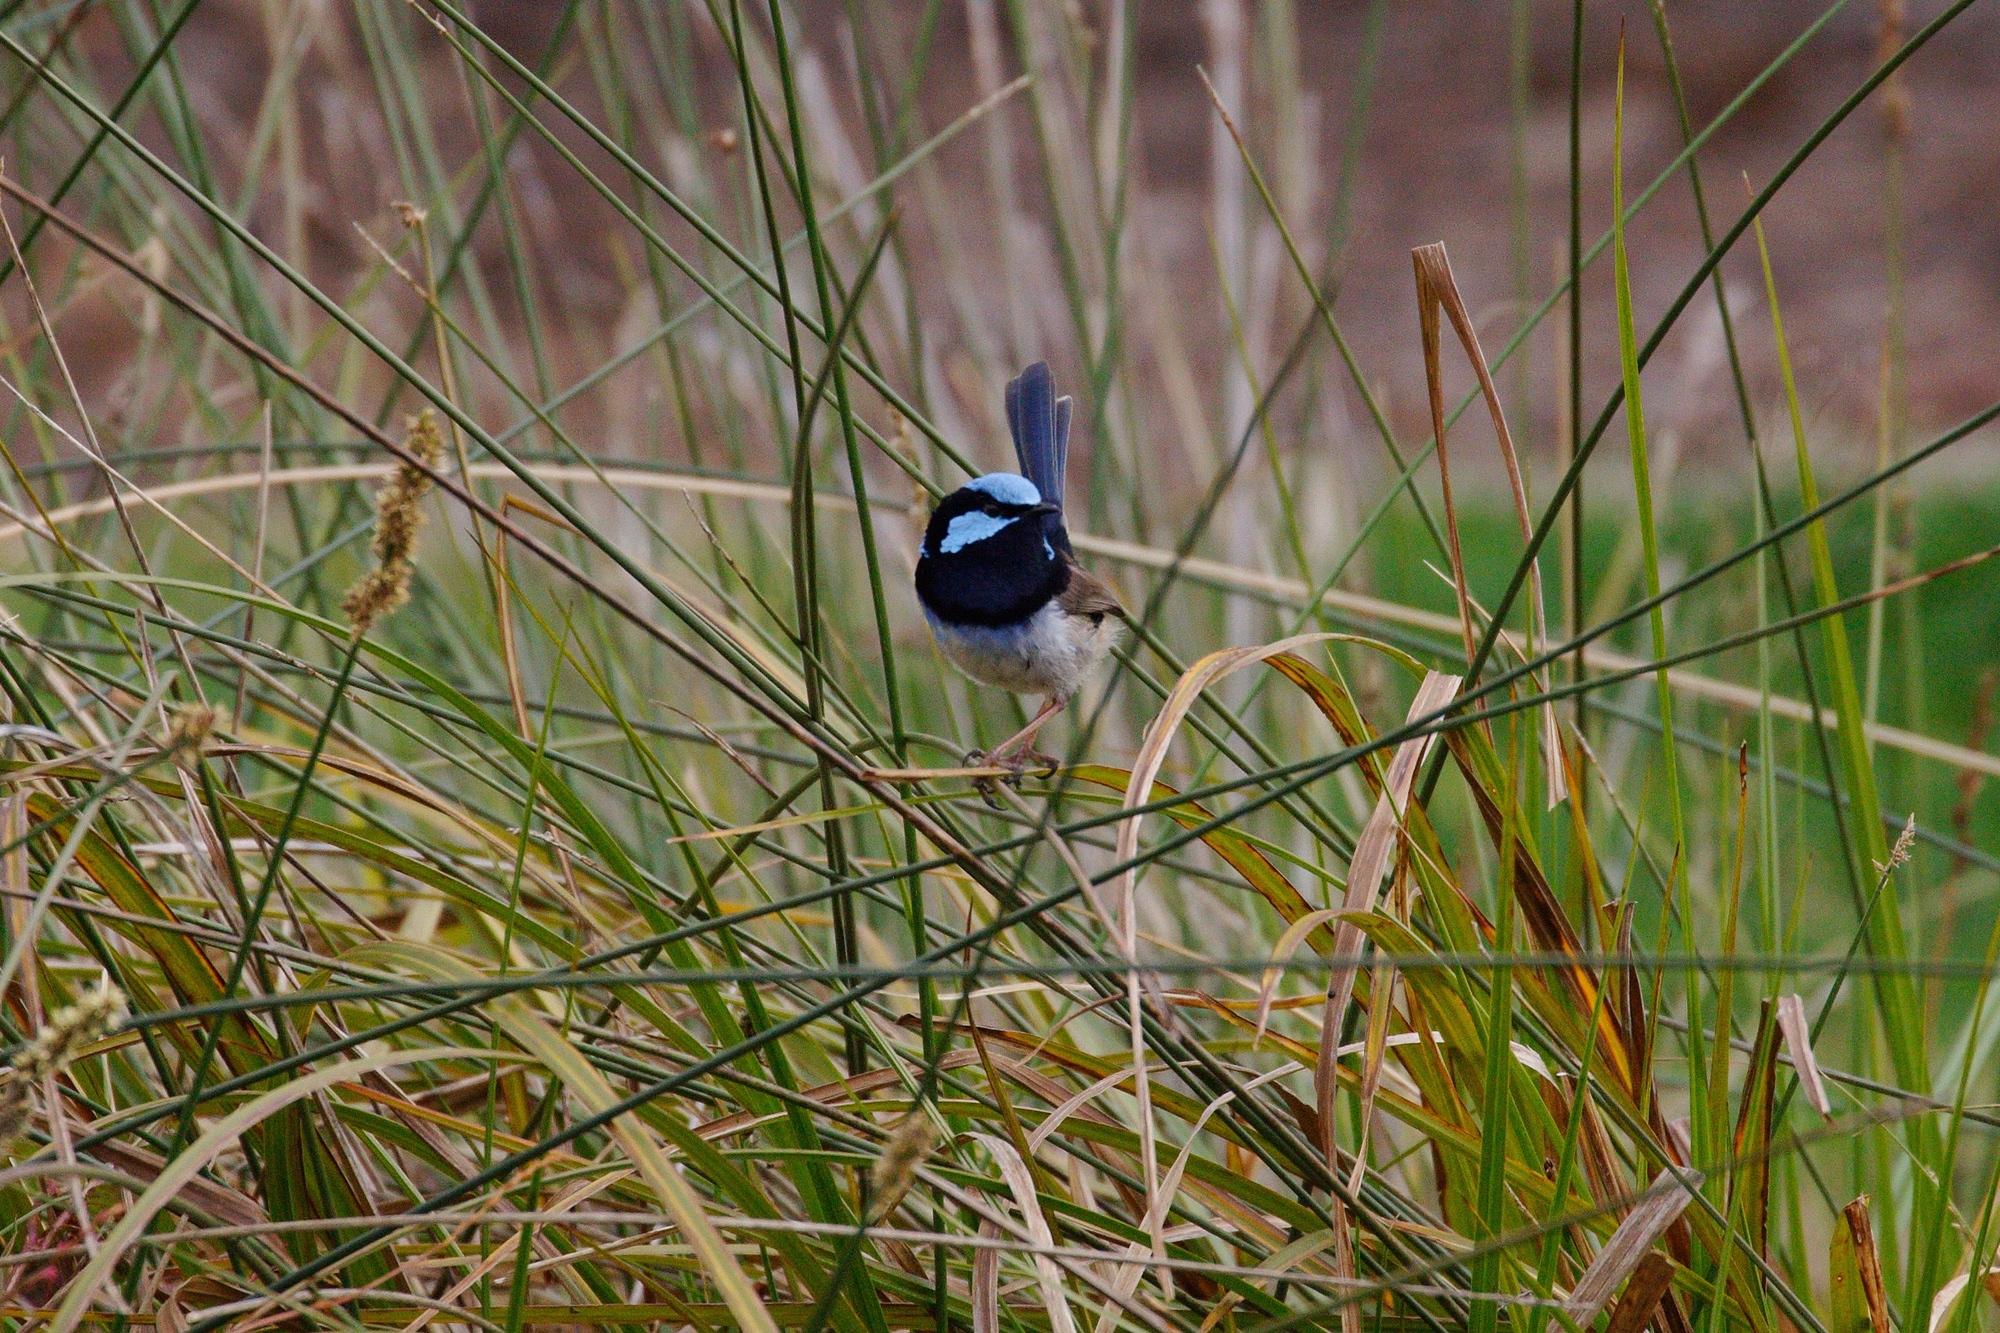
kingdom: Animalia
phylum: Chordata
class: Aves
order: Passeriformes
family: Maluridae
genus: Malurus
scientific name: Malurus cyaneus
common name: Superb fairywren
